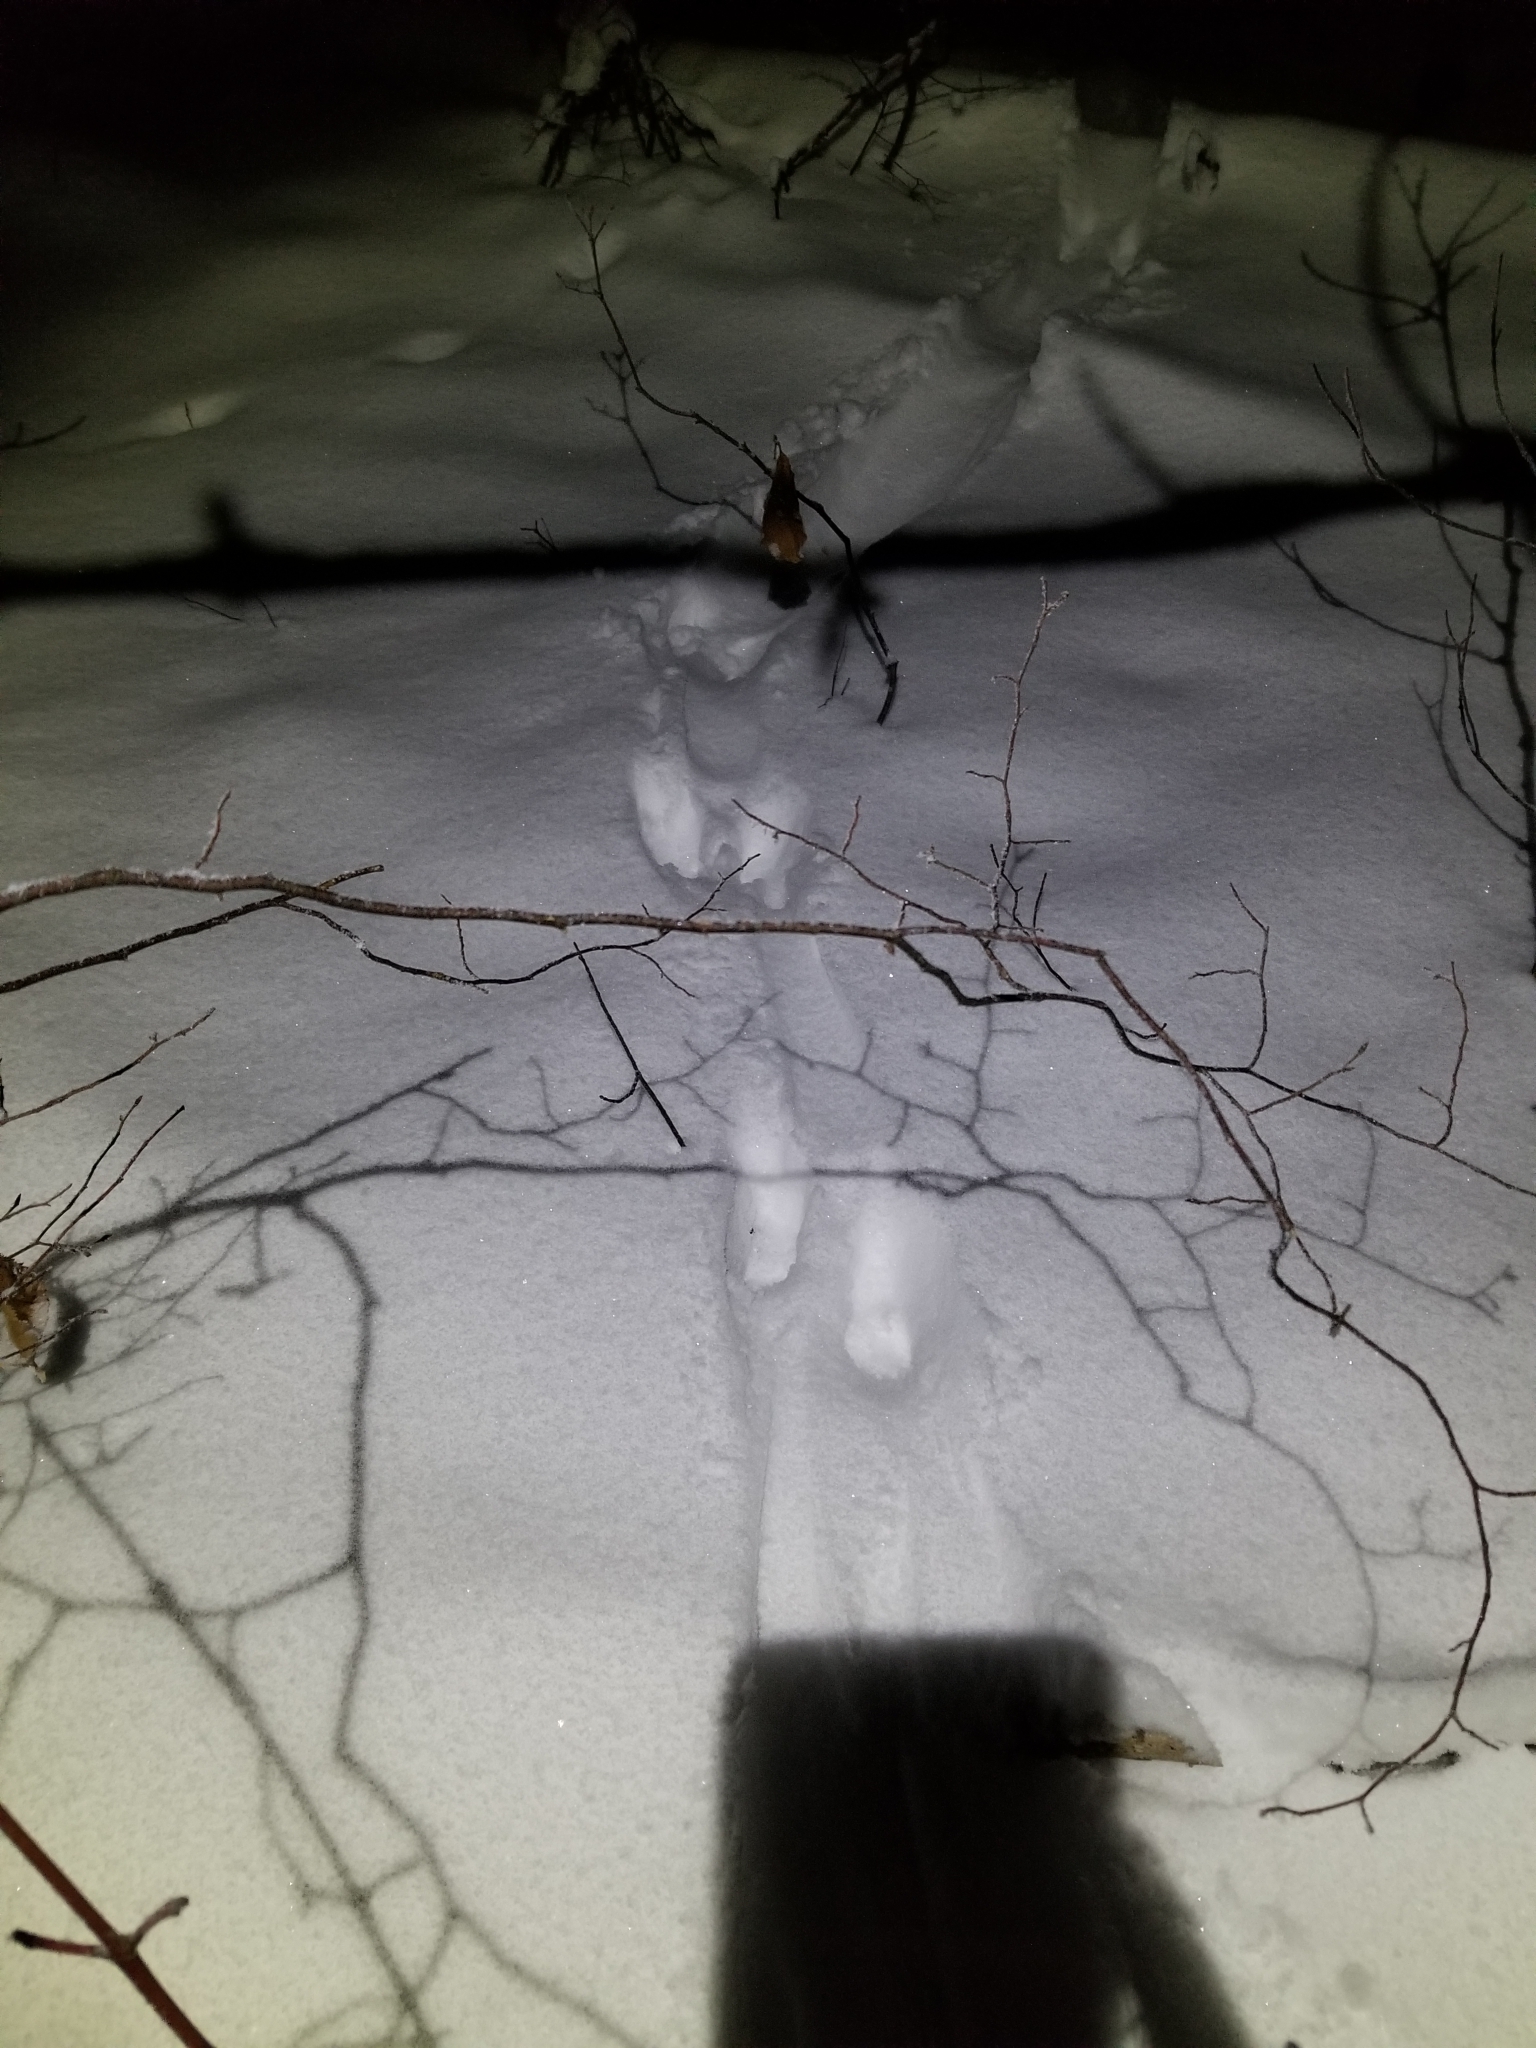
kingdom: Animalia
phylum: Chordata
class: Mammalia
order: Carnivora
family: Mustelidae
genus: Lontra
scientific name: Lontra canadensis
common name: North american river otter
